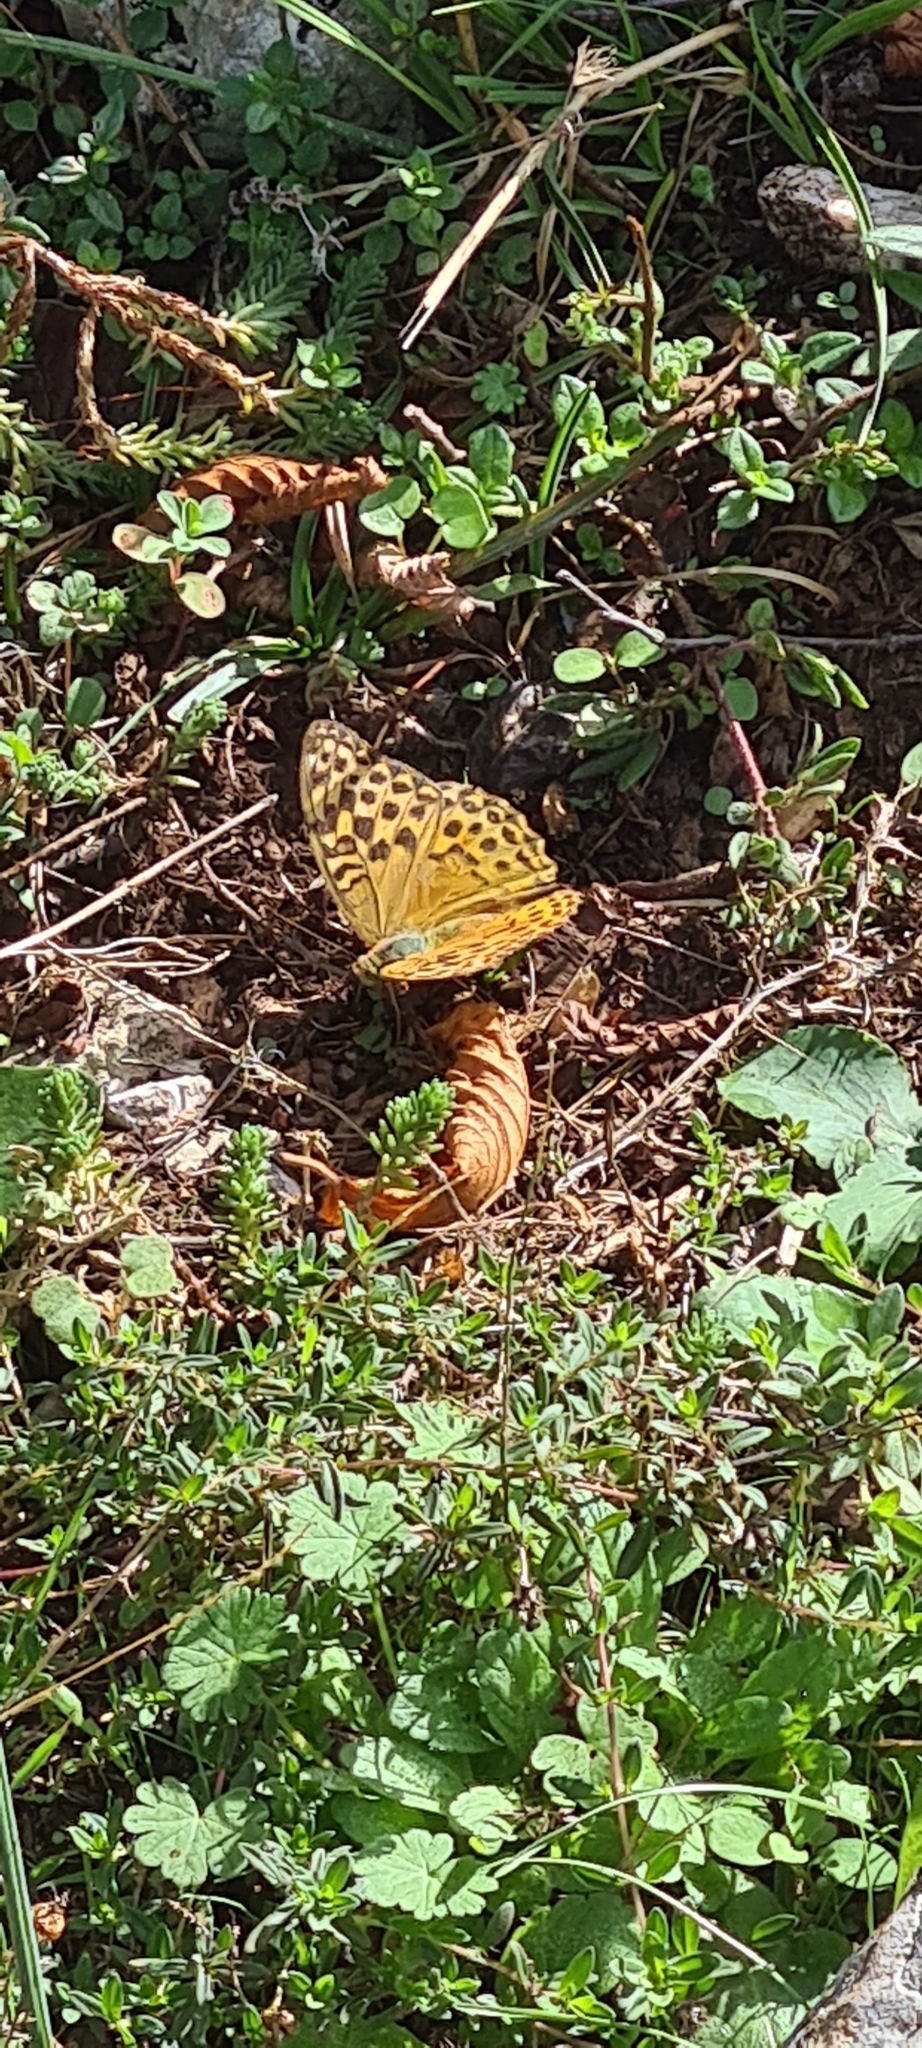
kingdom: Animalia
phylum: Arthropoda
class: Insecta
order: Lepidoptera
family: Nymphalidae
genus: Argynnis
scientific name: Argynnis paphia
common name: Silver-washed fritillary
